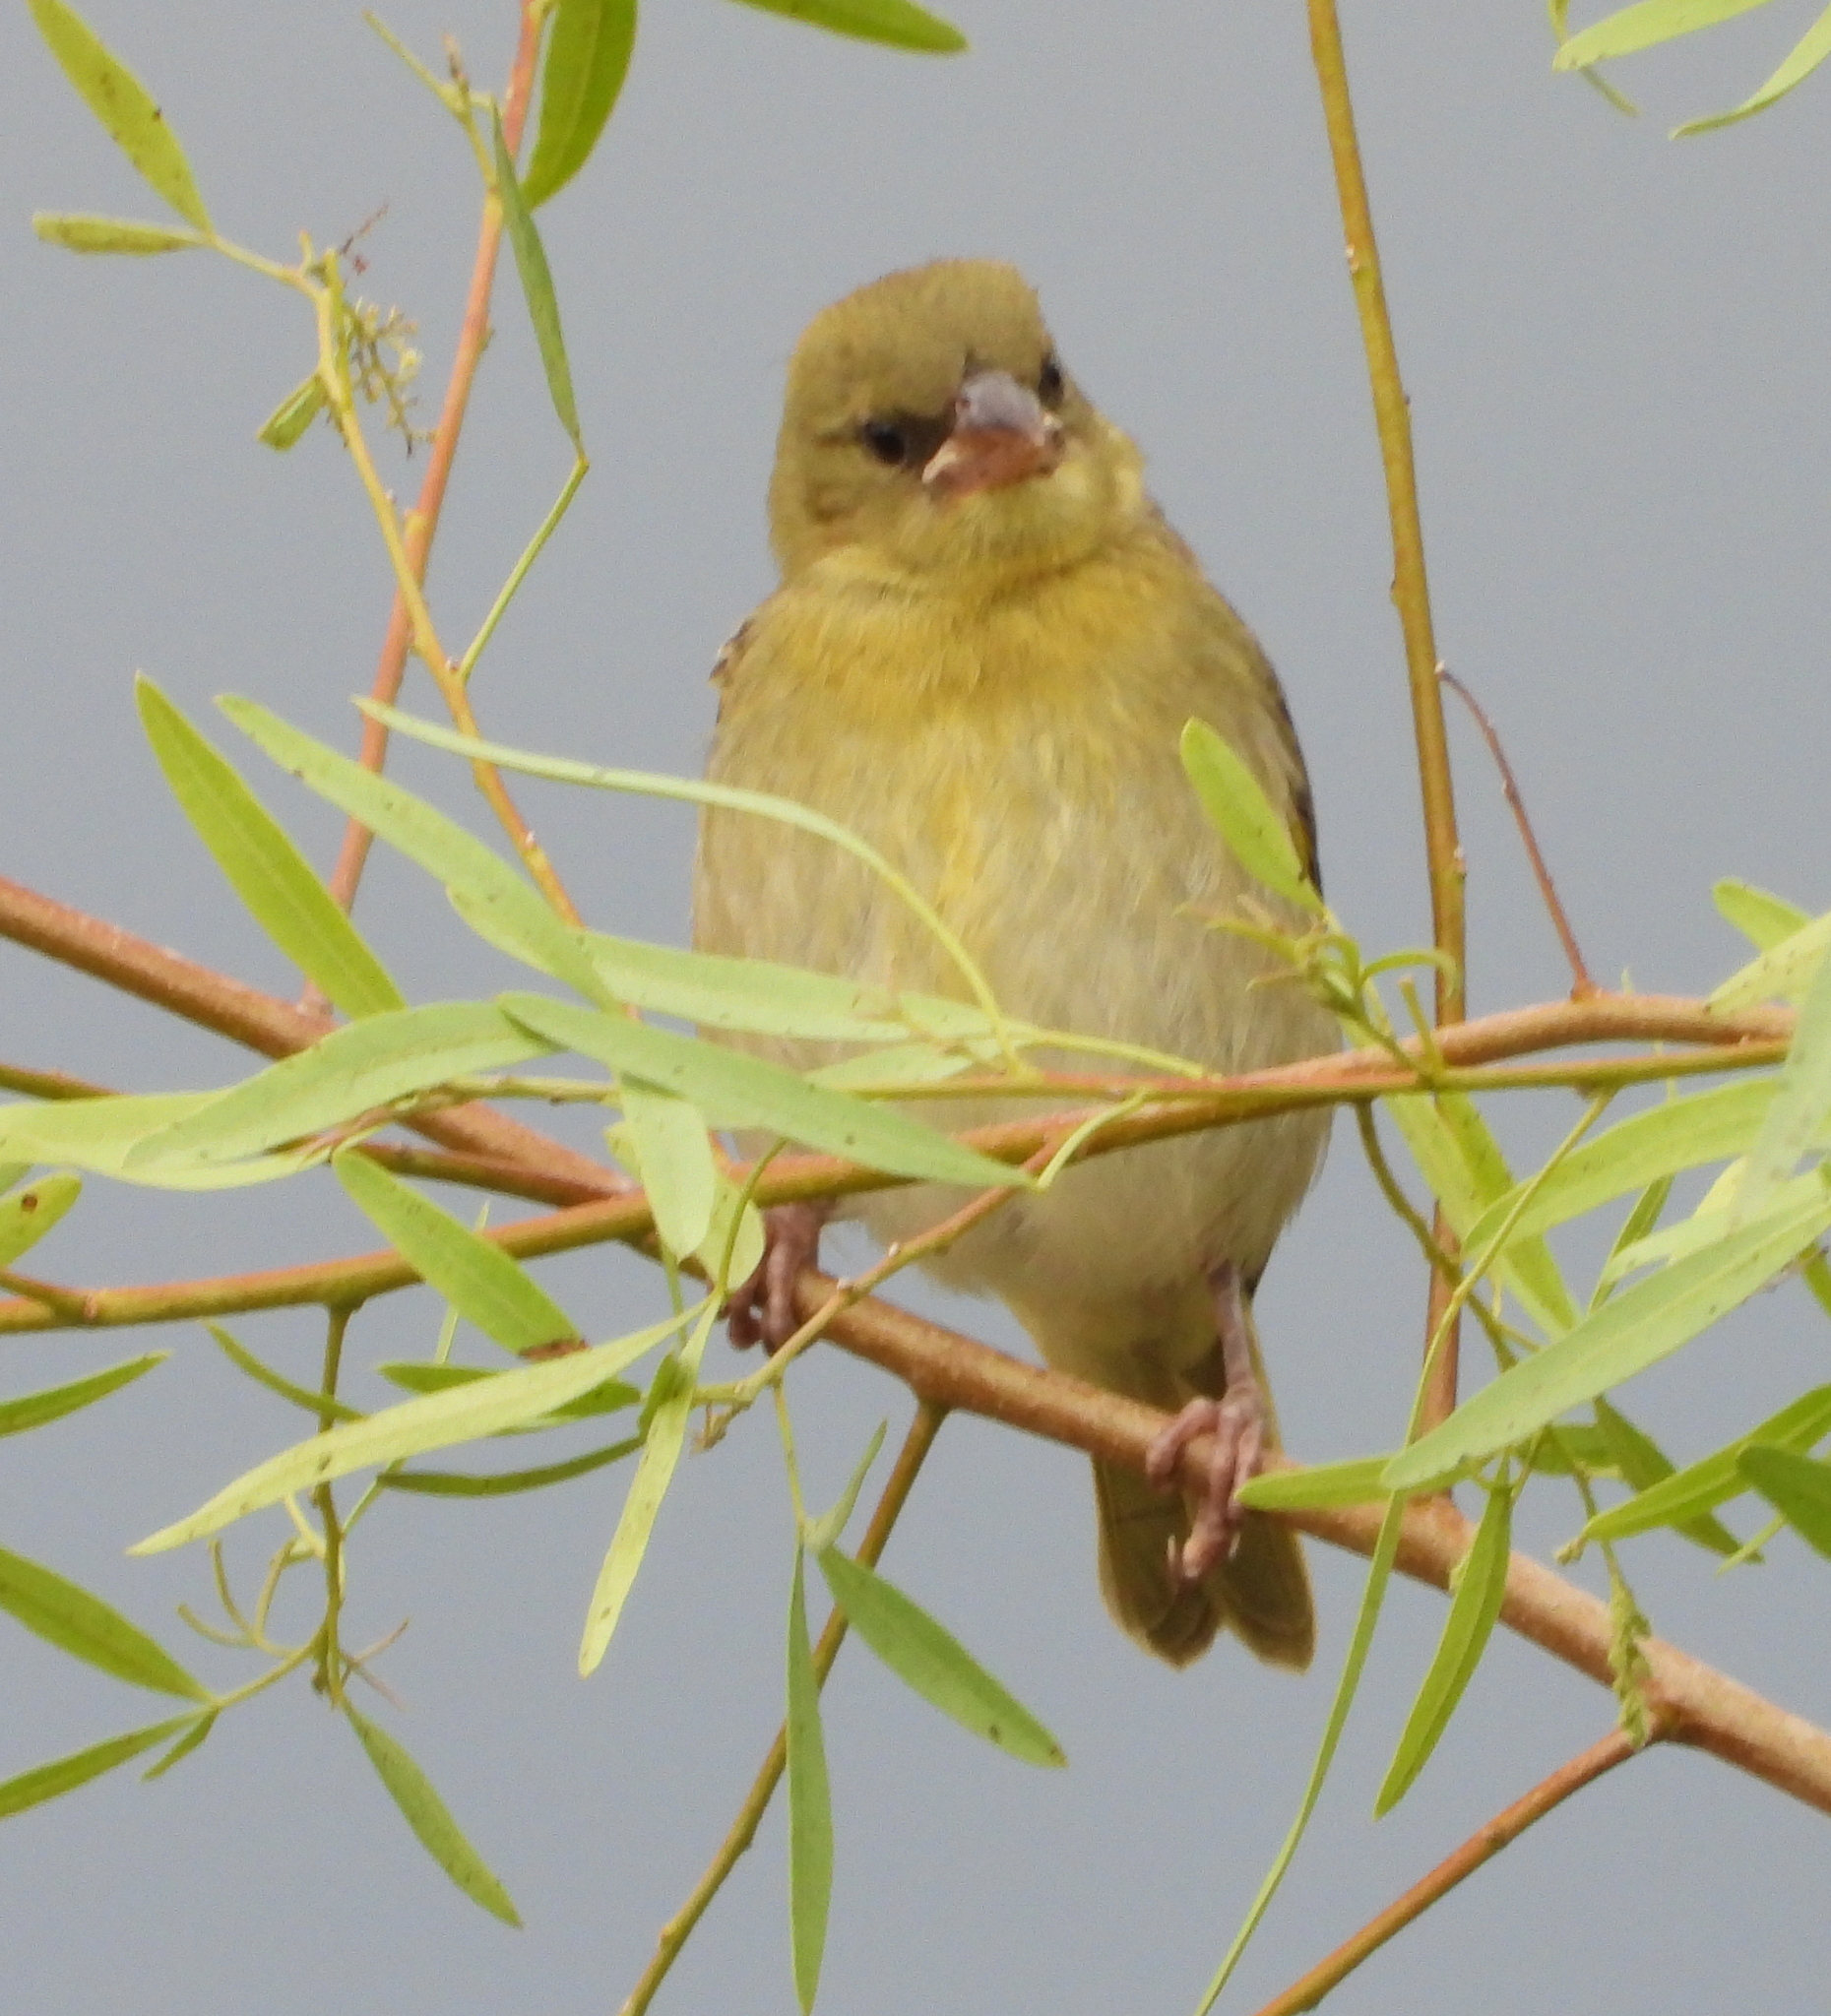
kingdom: Animalia
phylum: Chordata
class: Aves
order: Passeriformes
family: Ploceidae
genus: Ploceus
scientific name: Ploceus velatus
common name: Southern masked weaver
